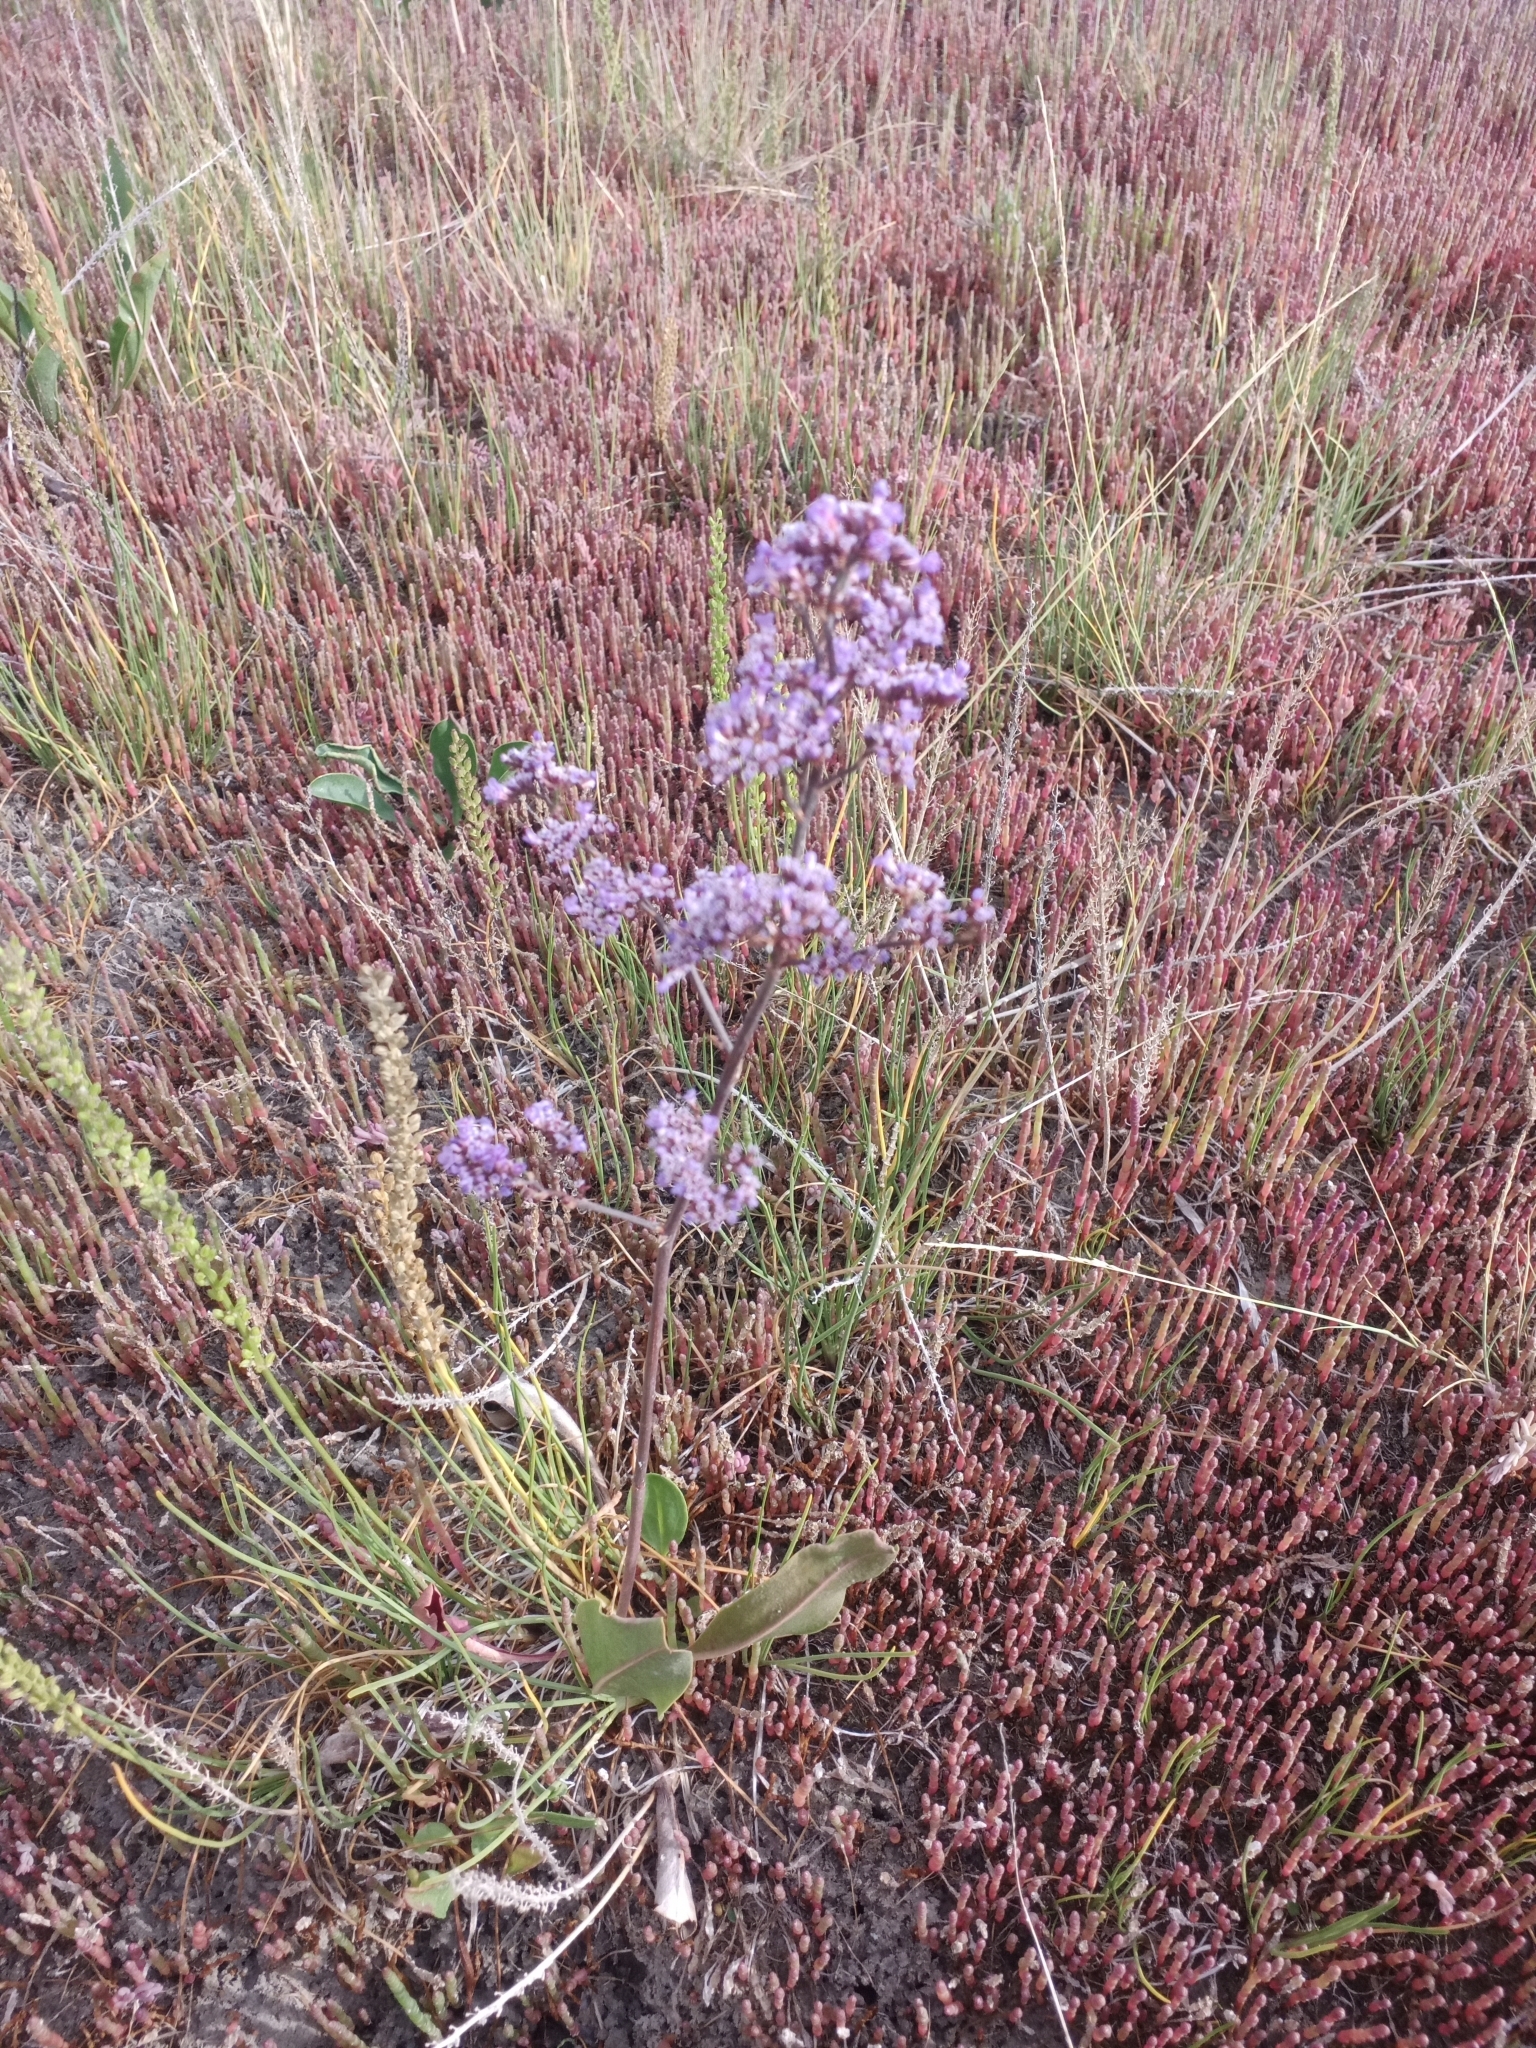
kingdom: Plantae
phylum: Tracheophyta
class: Magnoliopsida
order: Caryophyllales
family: Plumbaginaceae
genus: Limonium
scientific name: Limonium gmelini
